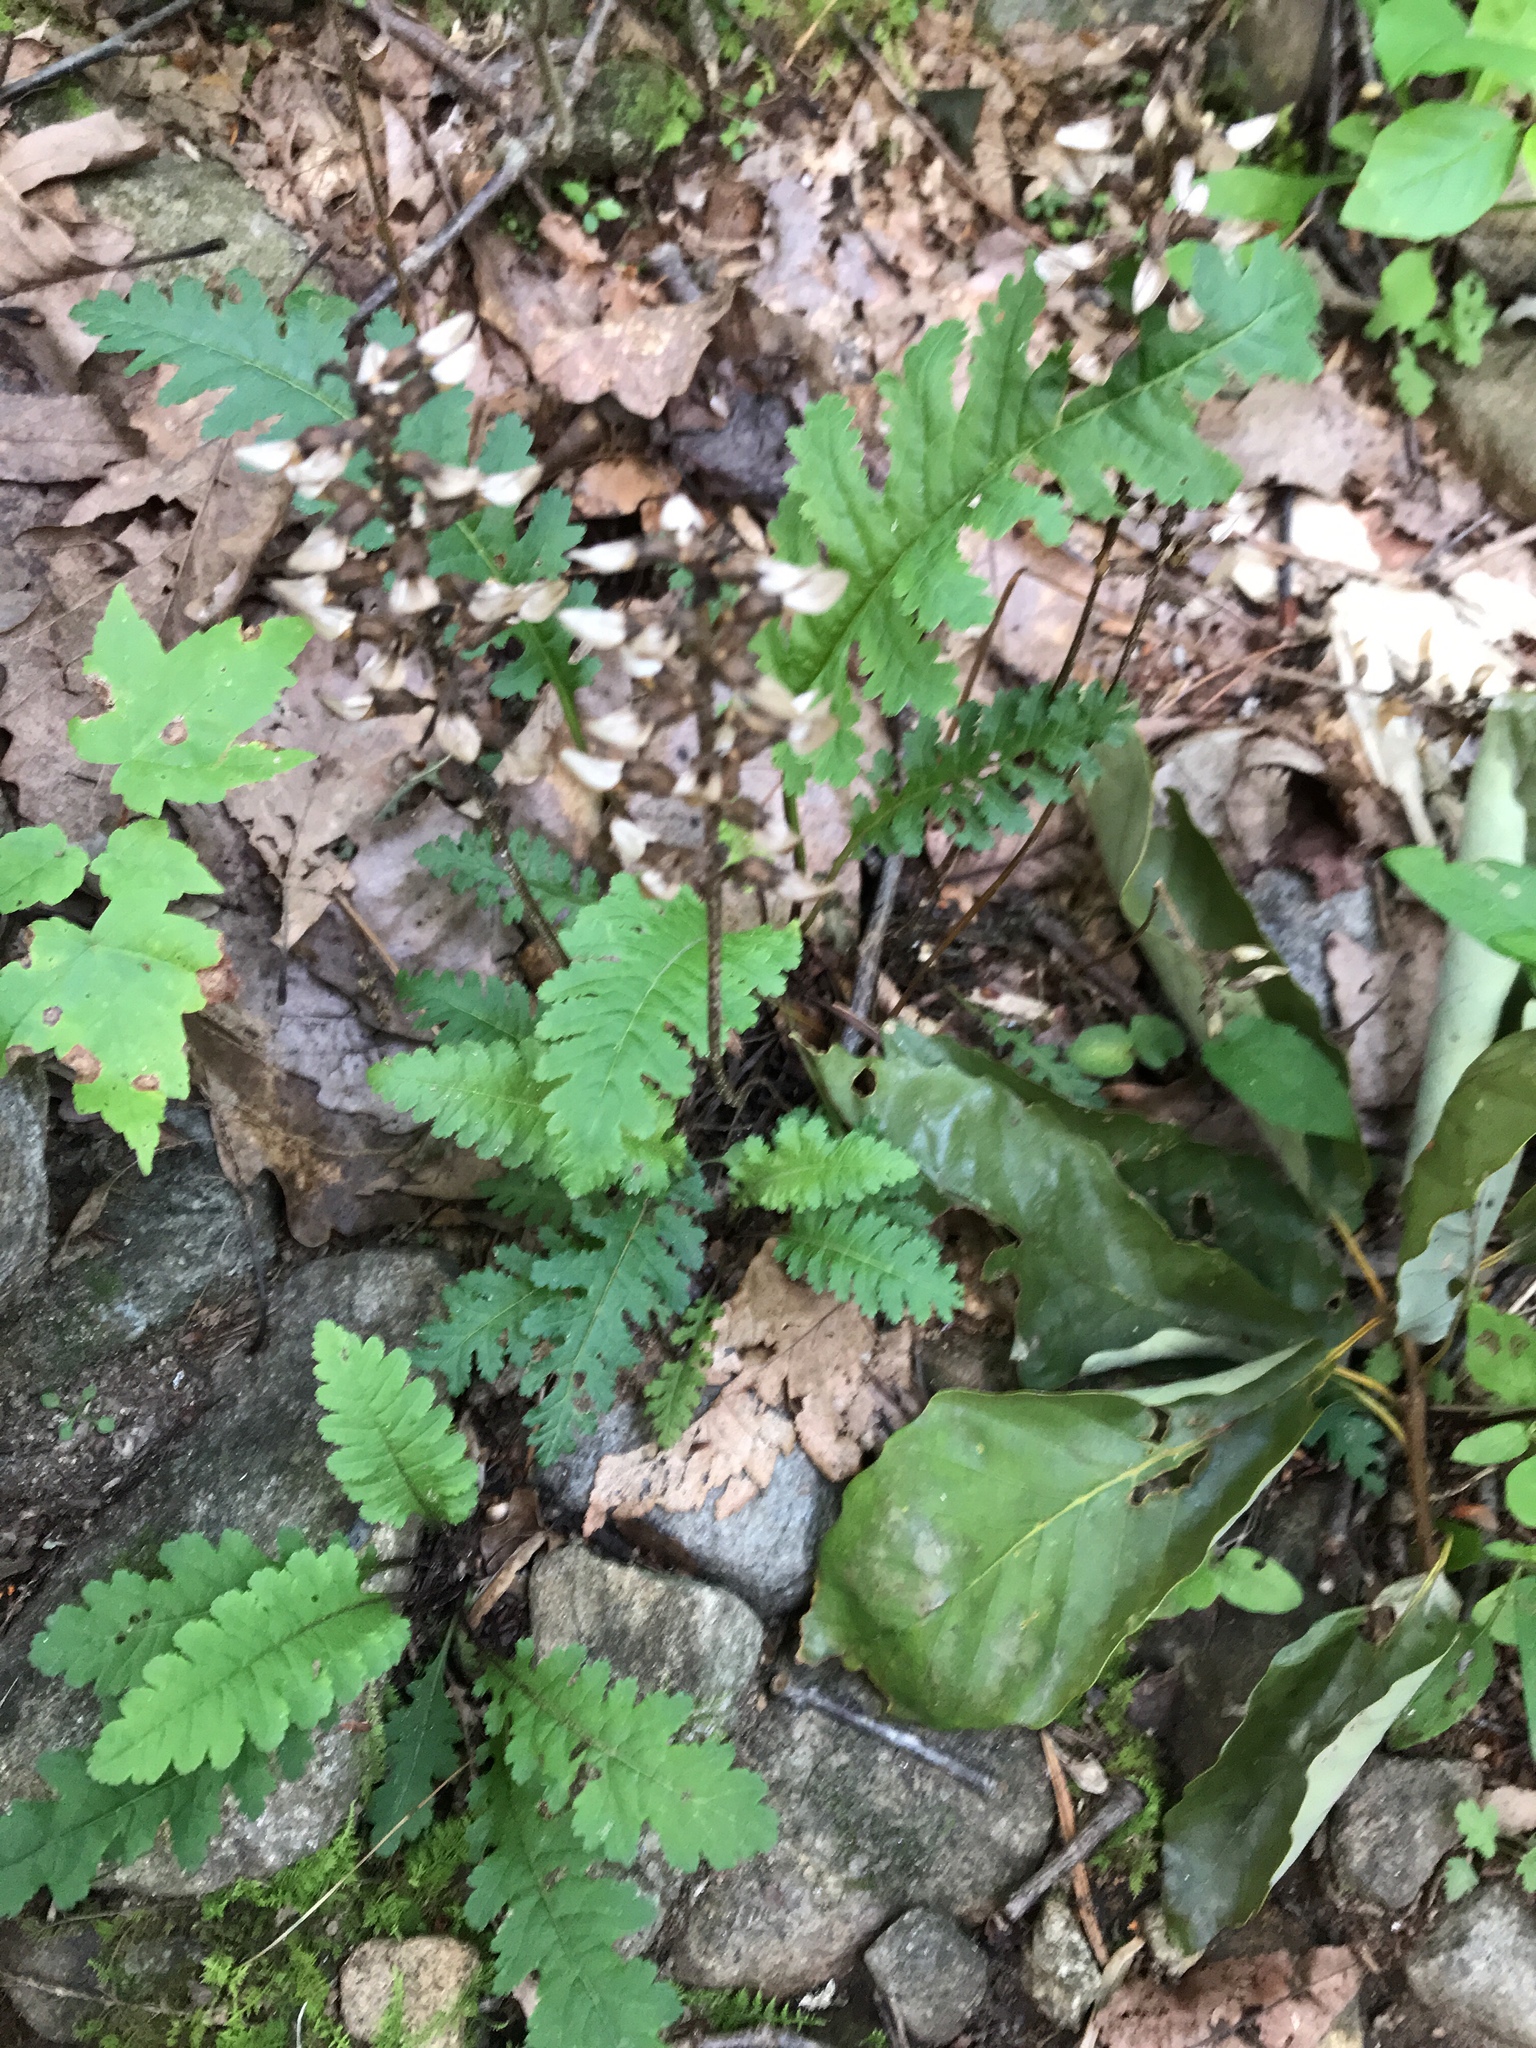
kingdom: Plantae
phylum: Tracheophyta
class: Magnoliopsida
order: Lamiales
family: Orobanchaceae
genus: Pedicularis
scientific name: Pedicularis canadensis
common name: Early lousewort
